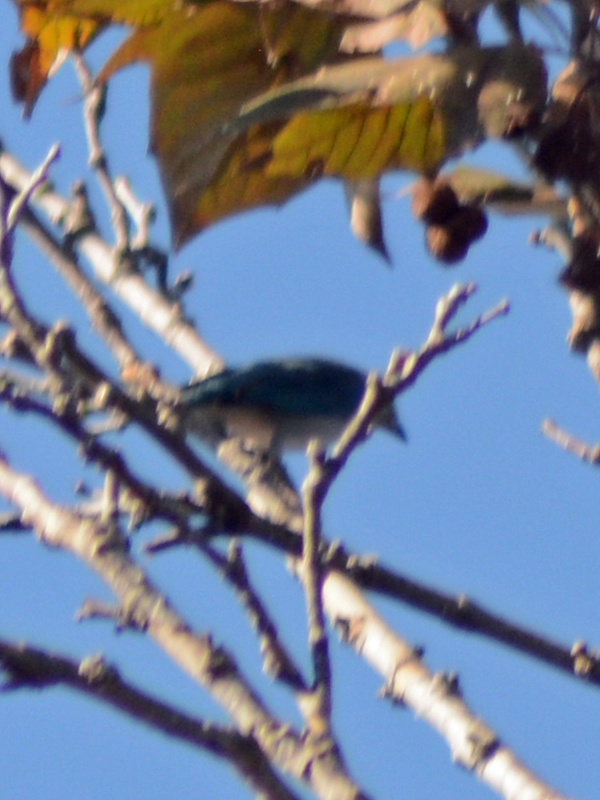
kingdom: Animalia
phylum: Chordata
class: Aves
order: Passeriformes
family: Thraupidae
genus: Thraupis
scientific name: Thraupis episcopus
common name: Blue-grey tanager
